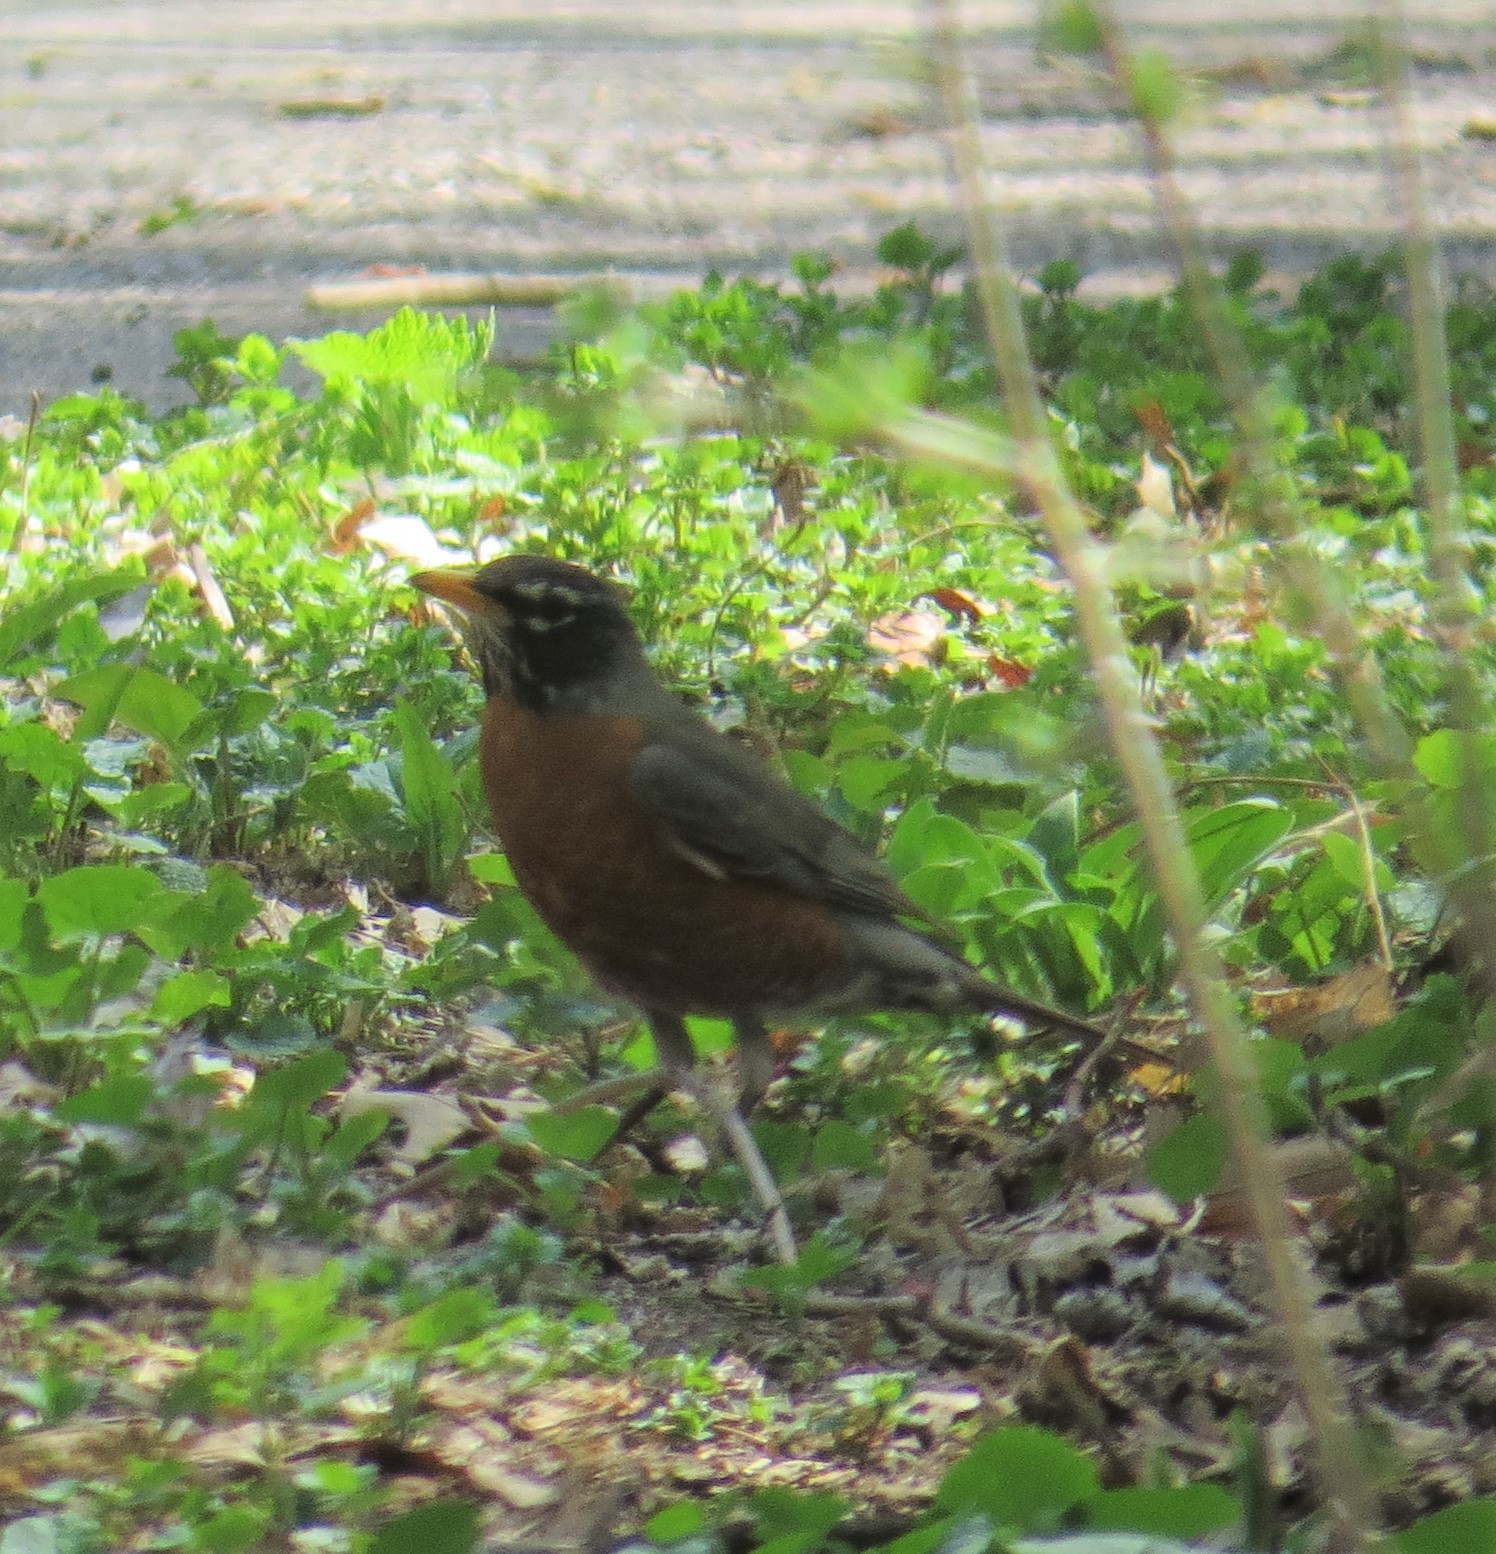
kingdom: Animalia
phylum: Chordata
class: Aves
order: Passeriformes
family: Turdidae
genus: Turdus
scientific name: Turdus migratorius
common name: American robin
